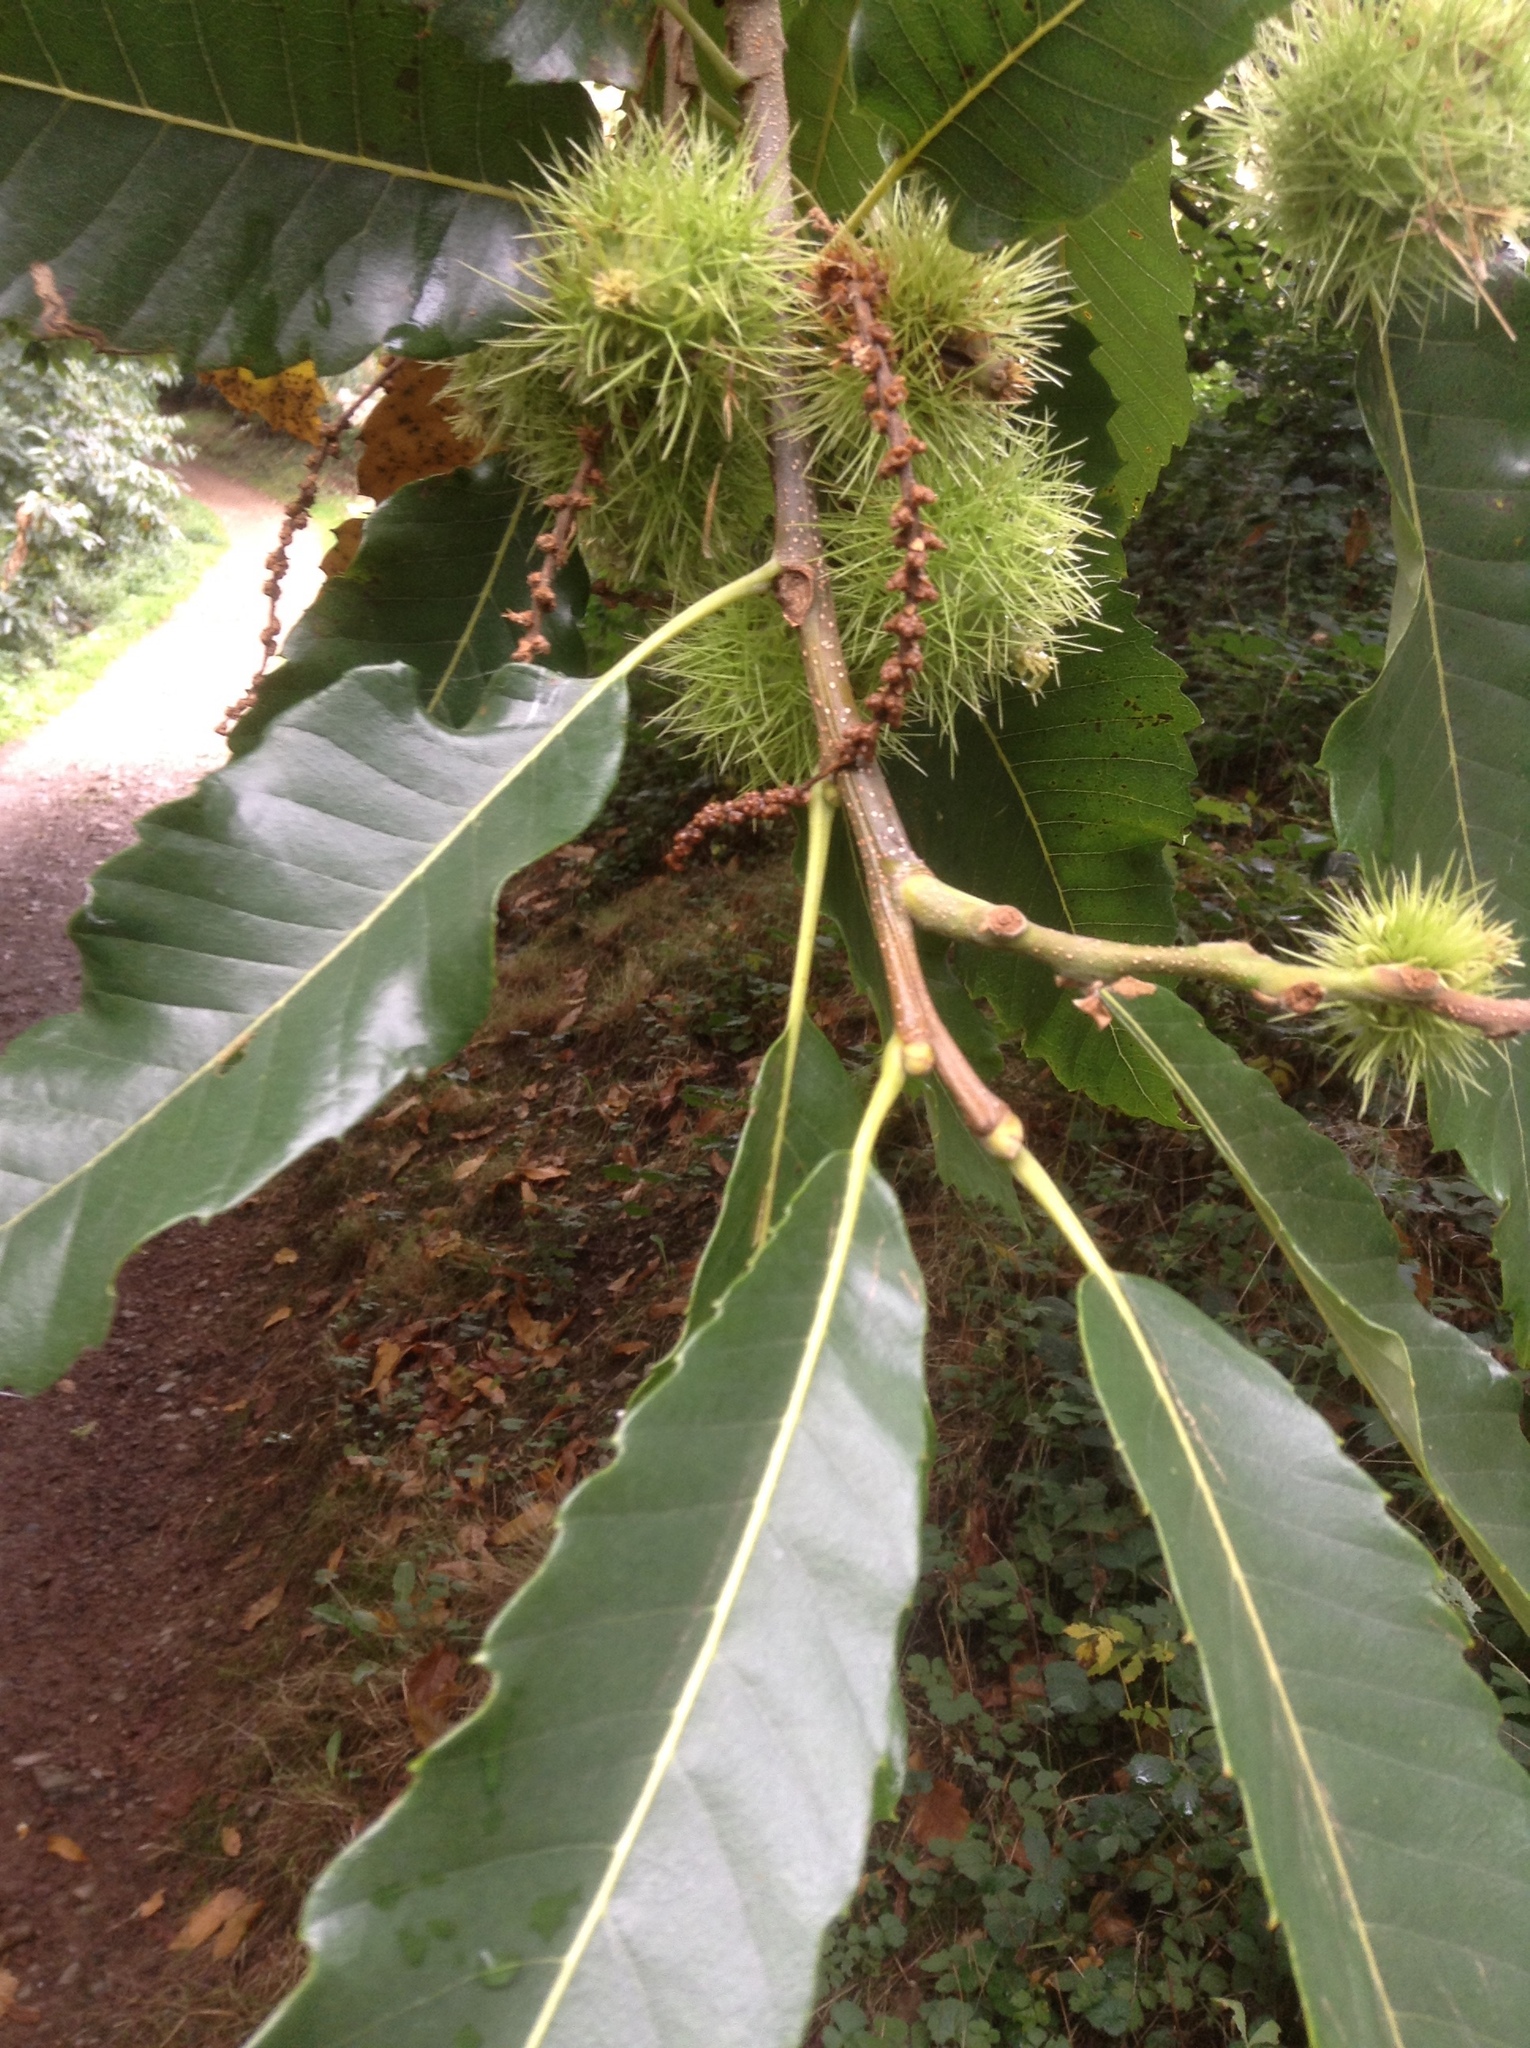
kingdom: Plantae
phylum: Tracheophyta
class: Magnoliopsida
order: Fagales
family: Fagaceae
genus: Castanea
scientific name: Castanea sativa
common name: Sweet chestnut
